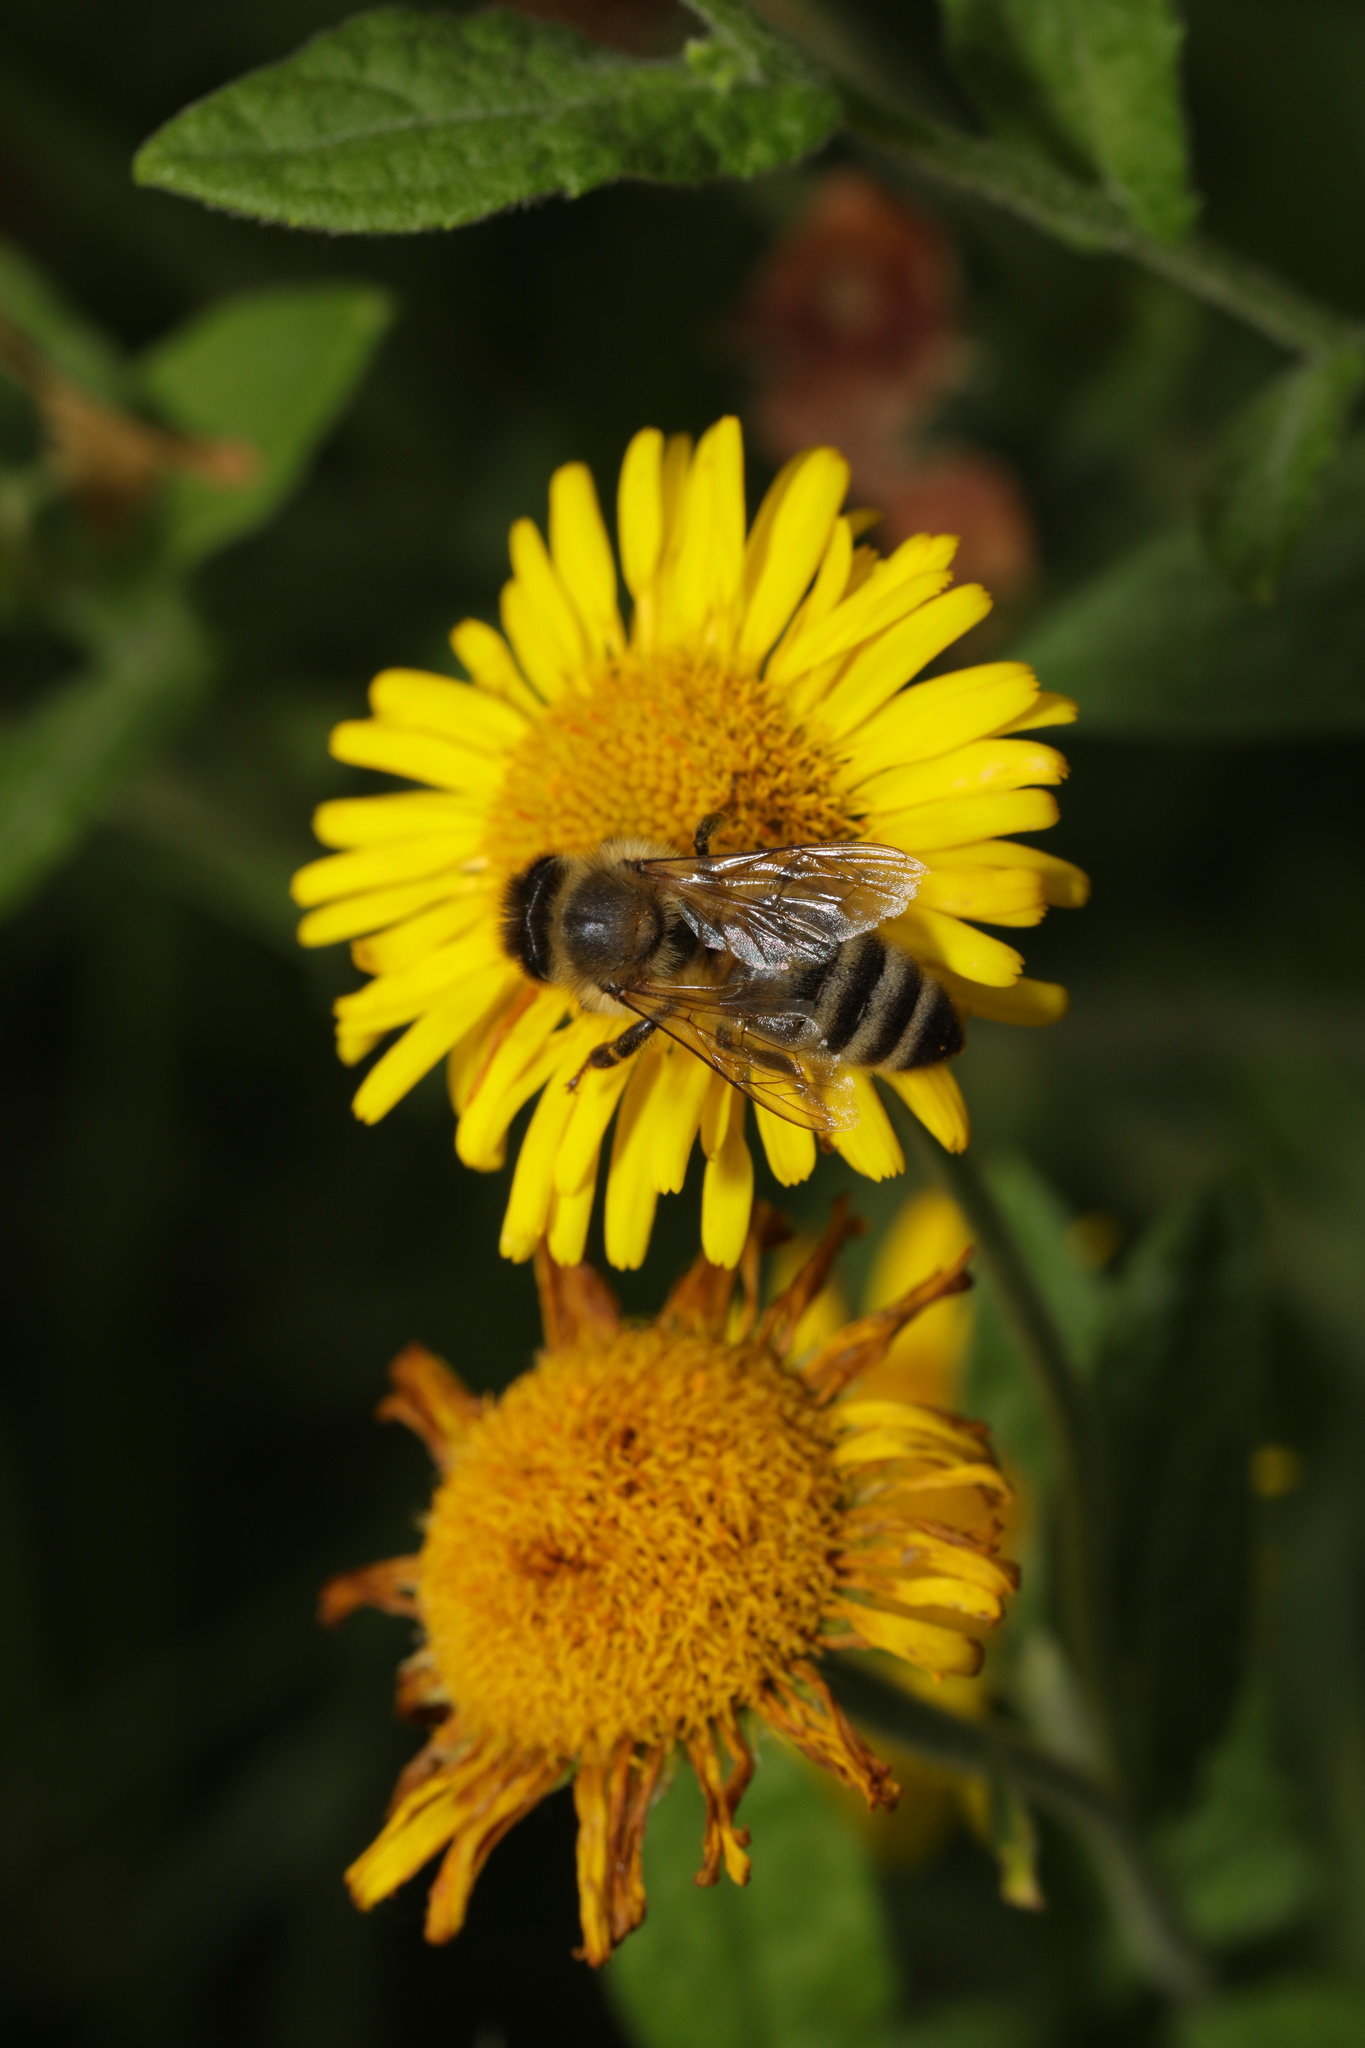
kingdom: Animalia
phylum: Arthropoda
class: Insecta
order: Hymenoptera
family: Apidae
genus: Apis
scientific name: Apis mellifera
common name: Honey bee
